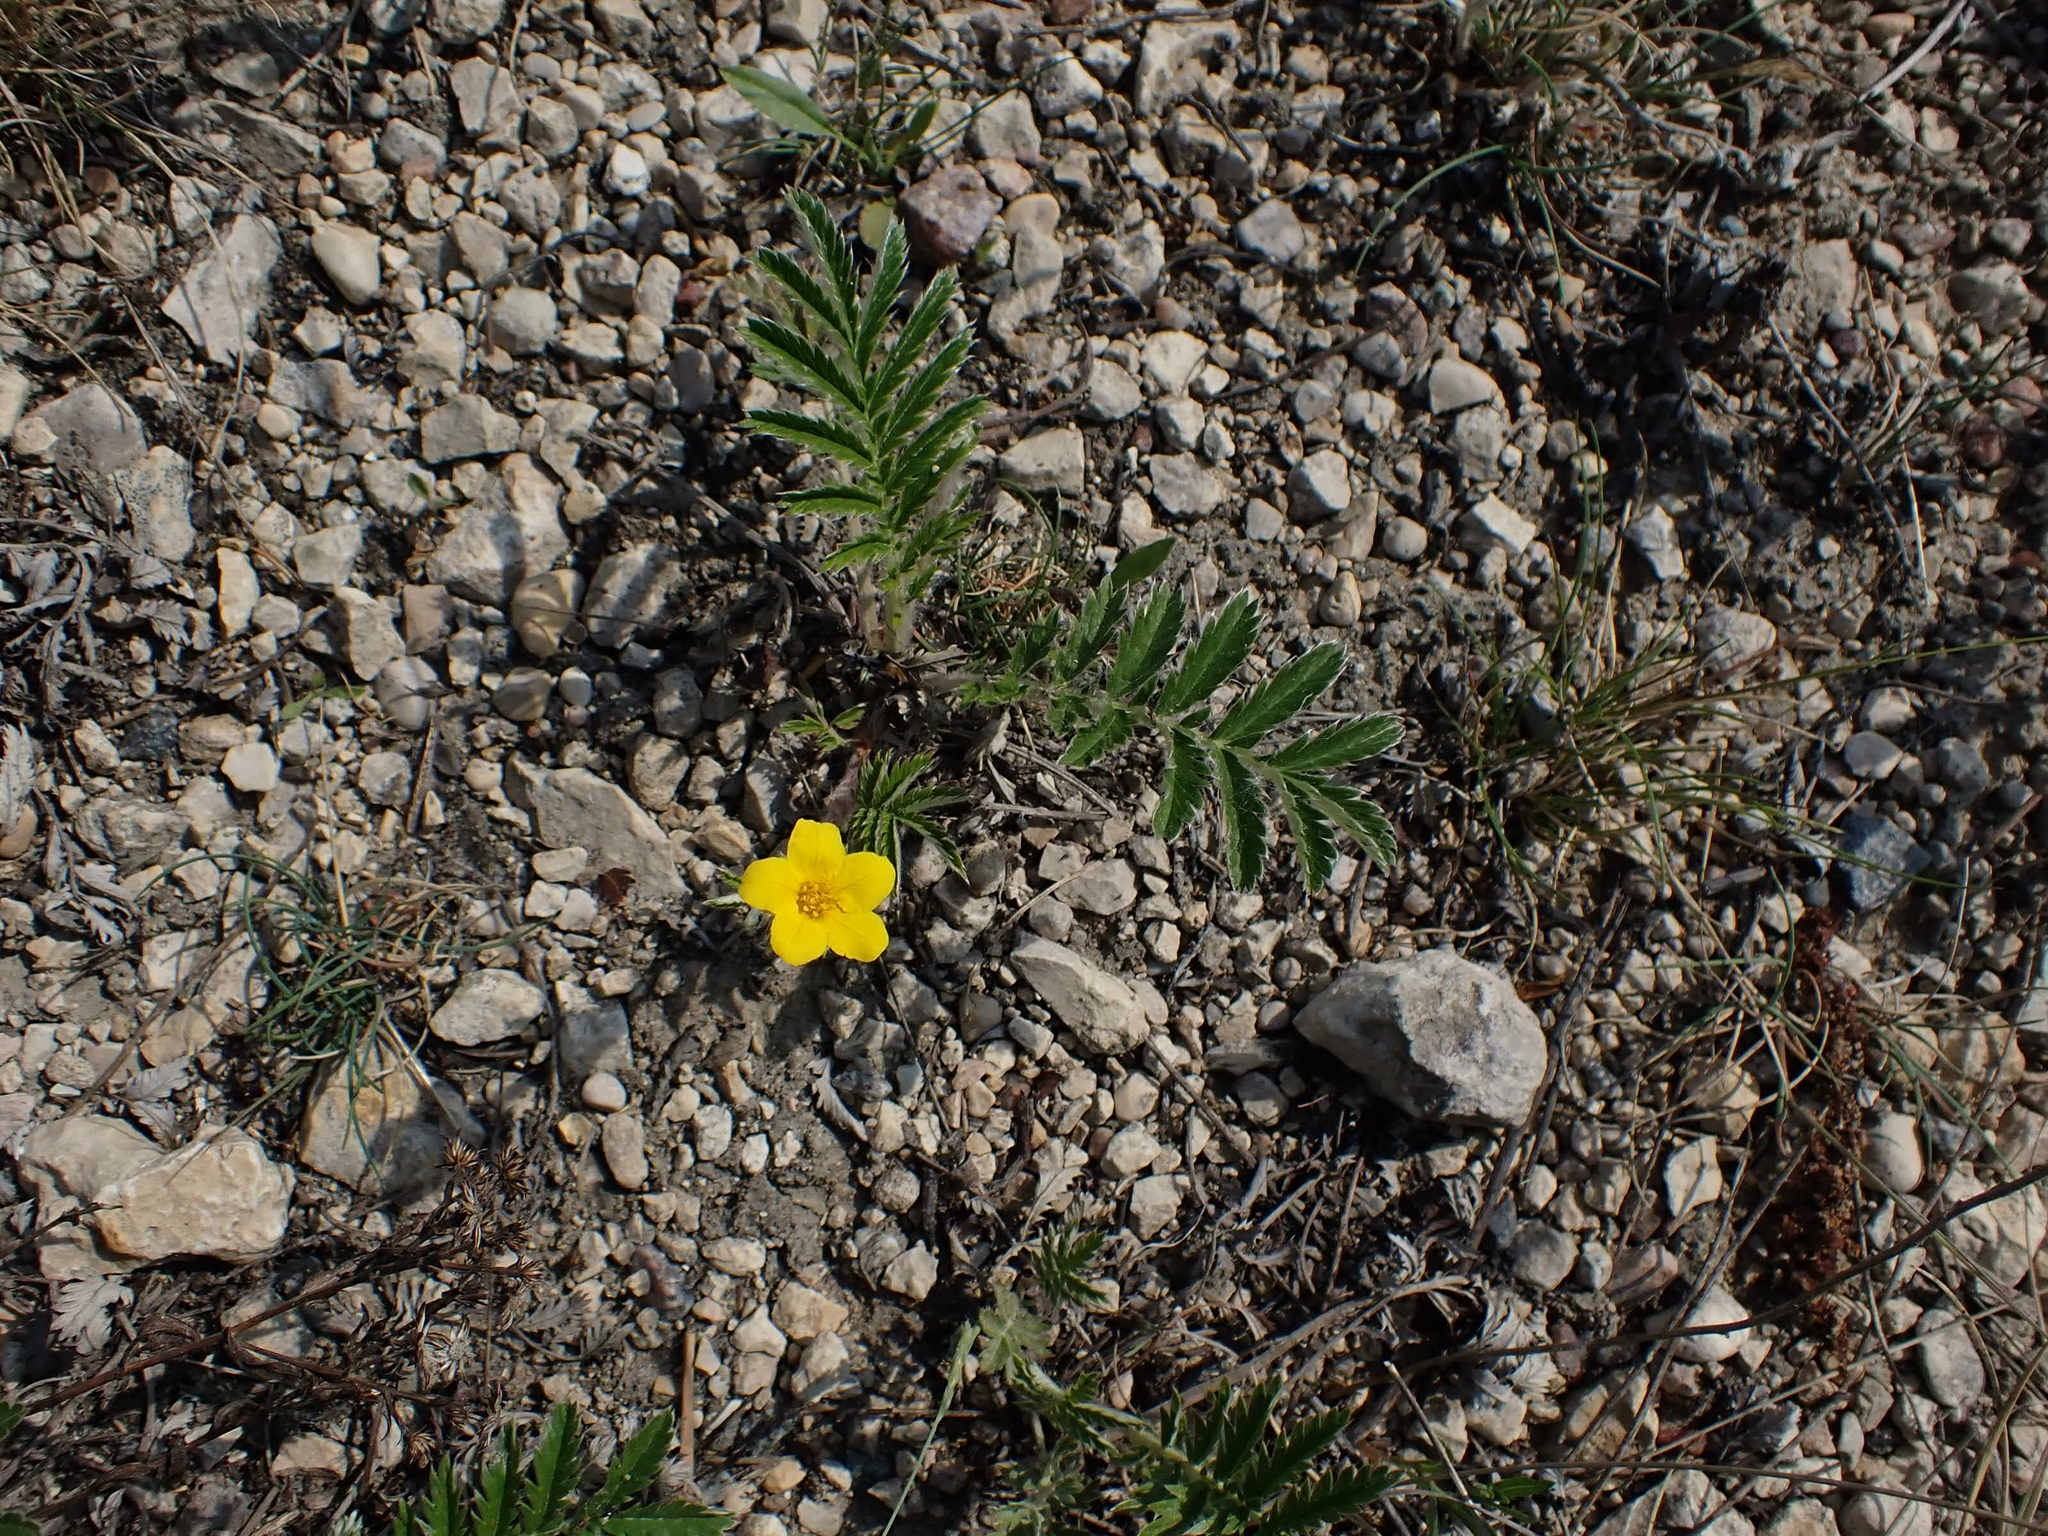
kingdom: Plantae
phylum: Tracheophyta
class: Magnoliopsida
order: Rosales
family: Rosaceae
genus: Argentina
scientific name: Argentina anserina
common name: Common silverweed
